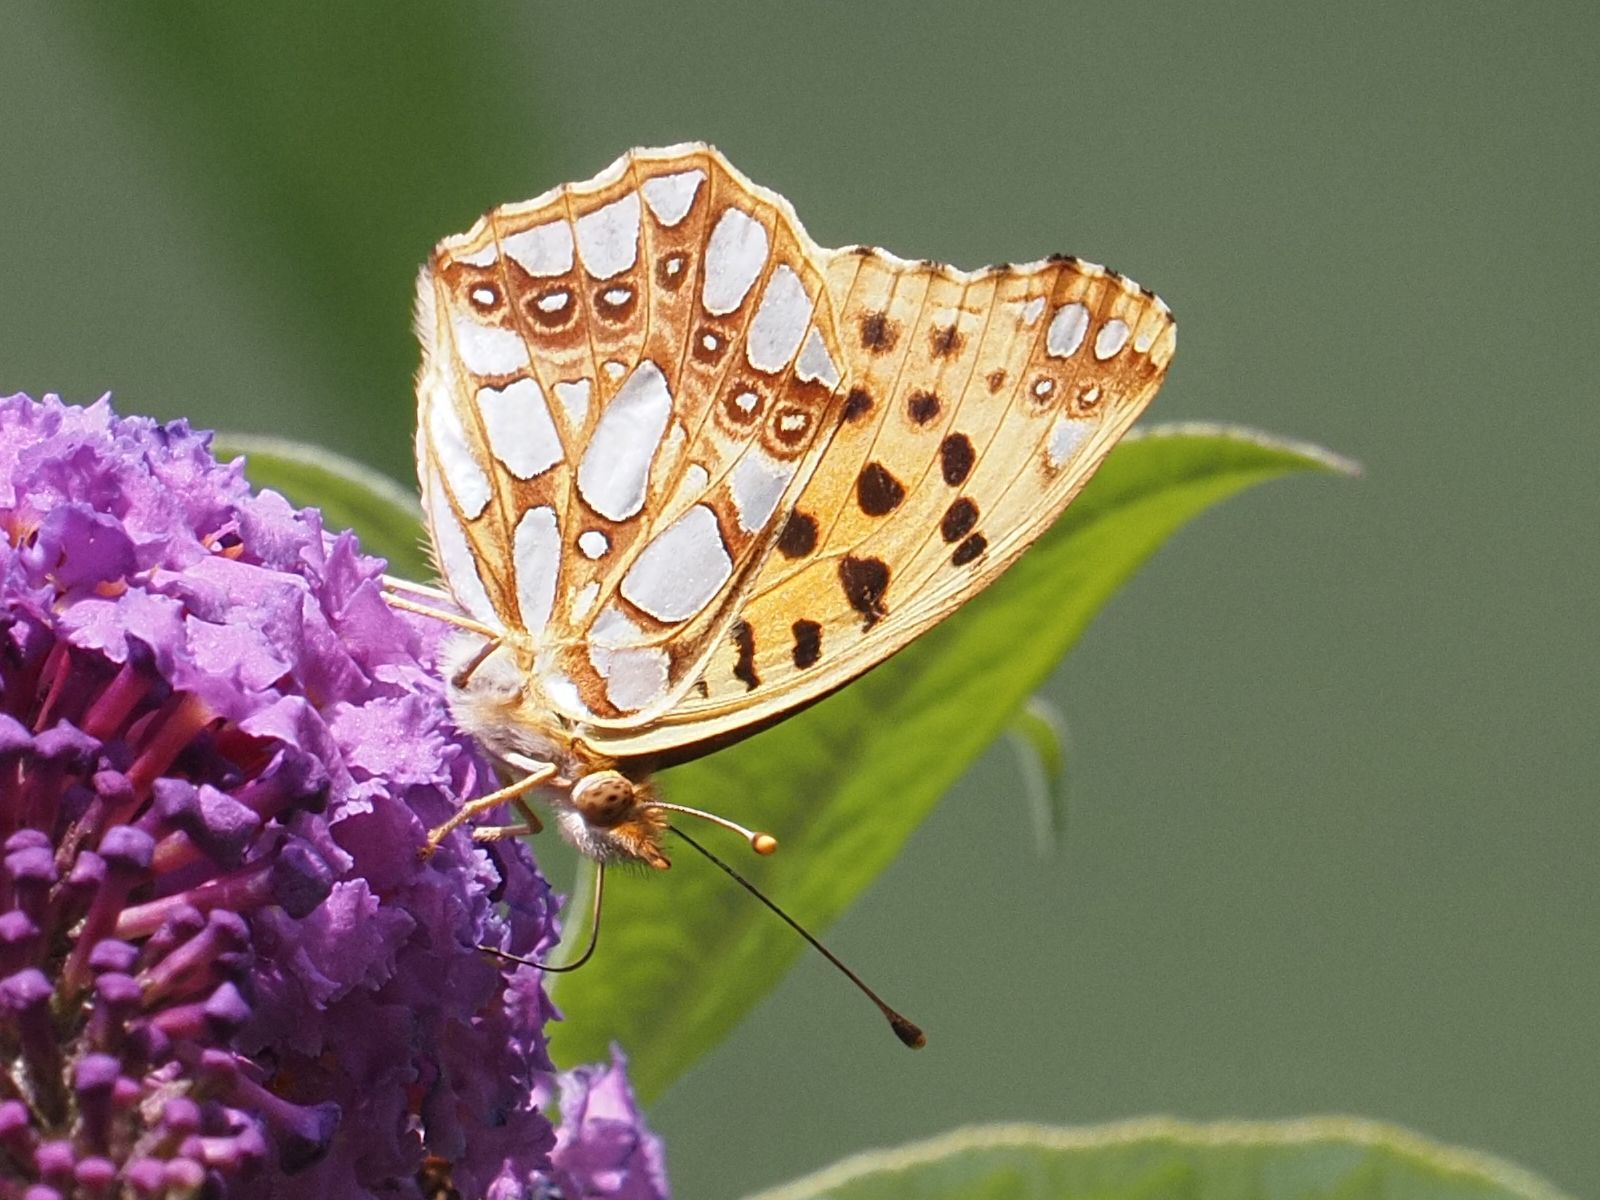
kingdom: Animalia
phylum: Arthropoda
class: Insecta
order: Lepidoptera
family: Nymphalidae
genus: Issoria
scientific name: Issoria lathonia
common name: Queen of spain fritillary
